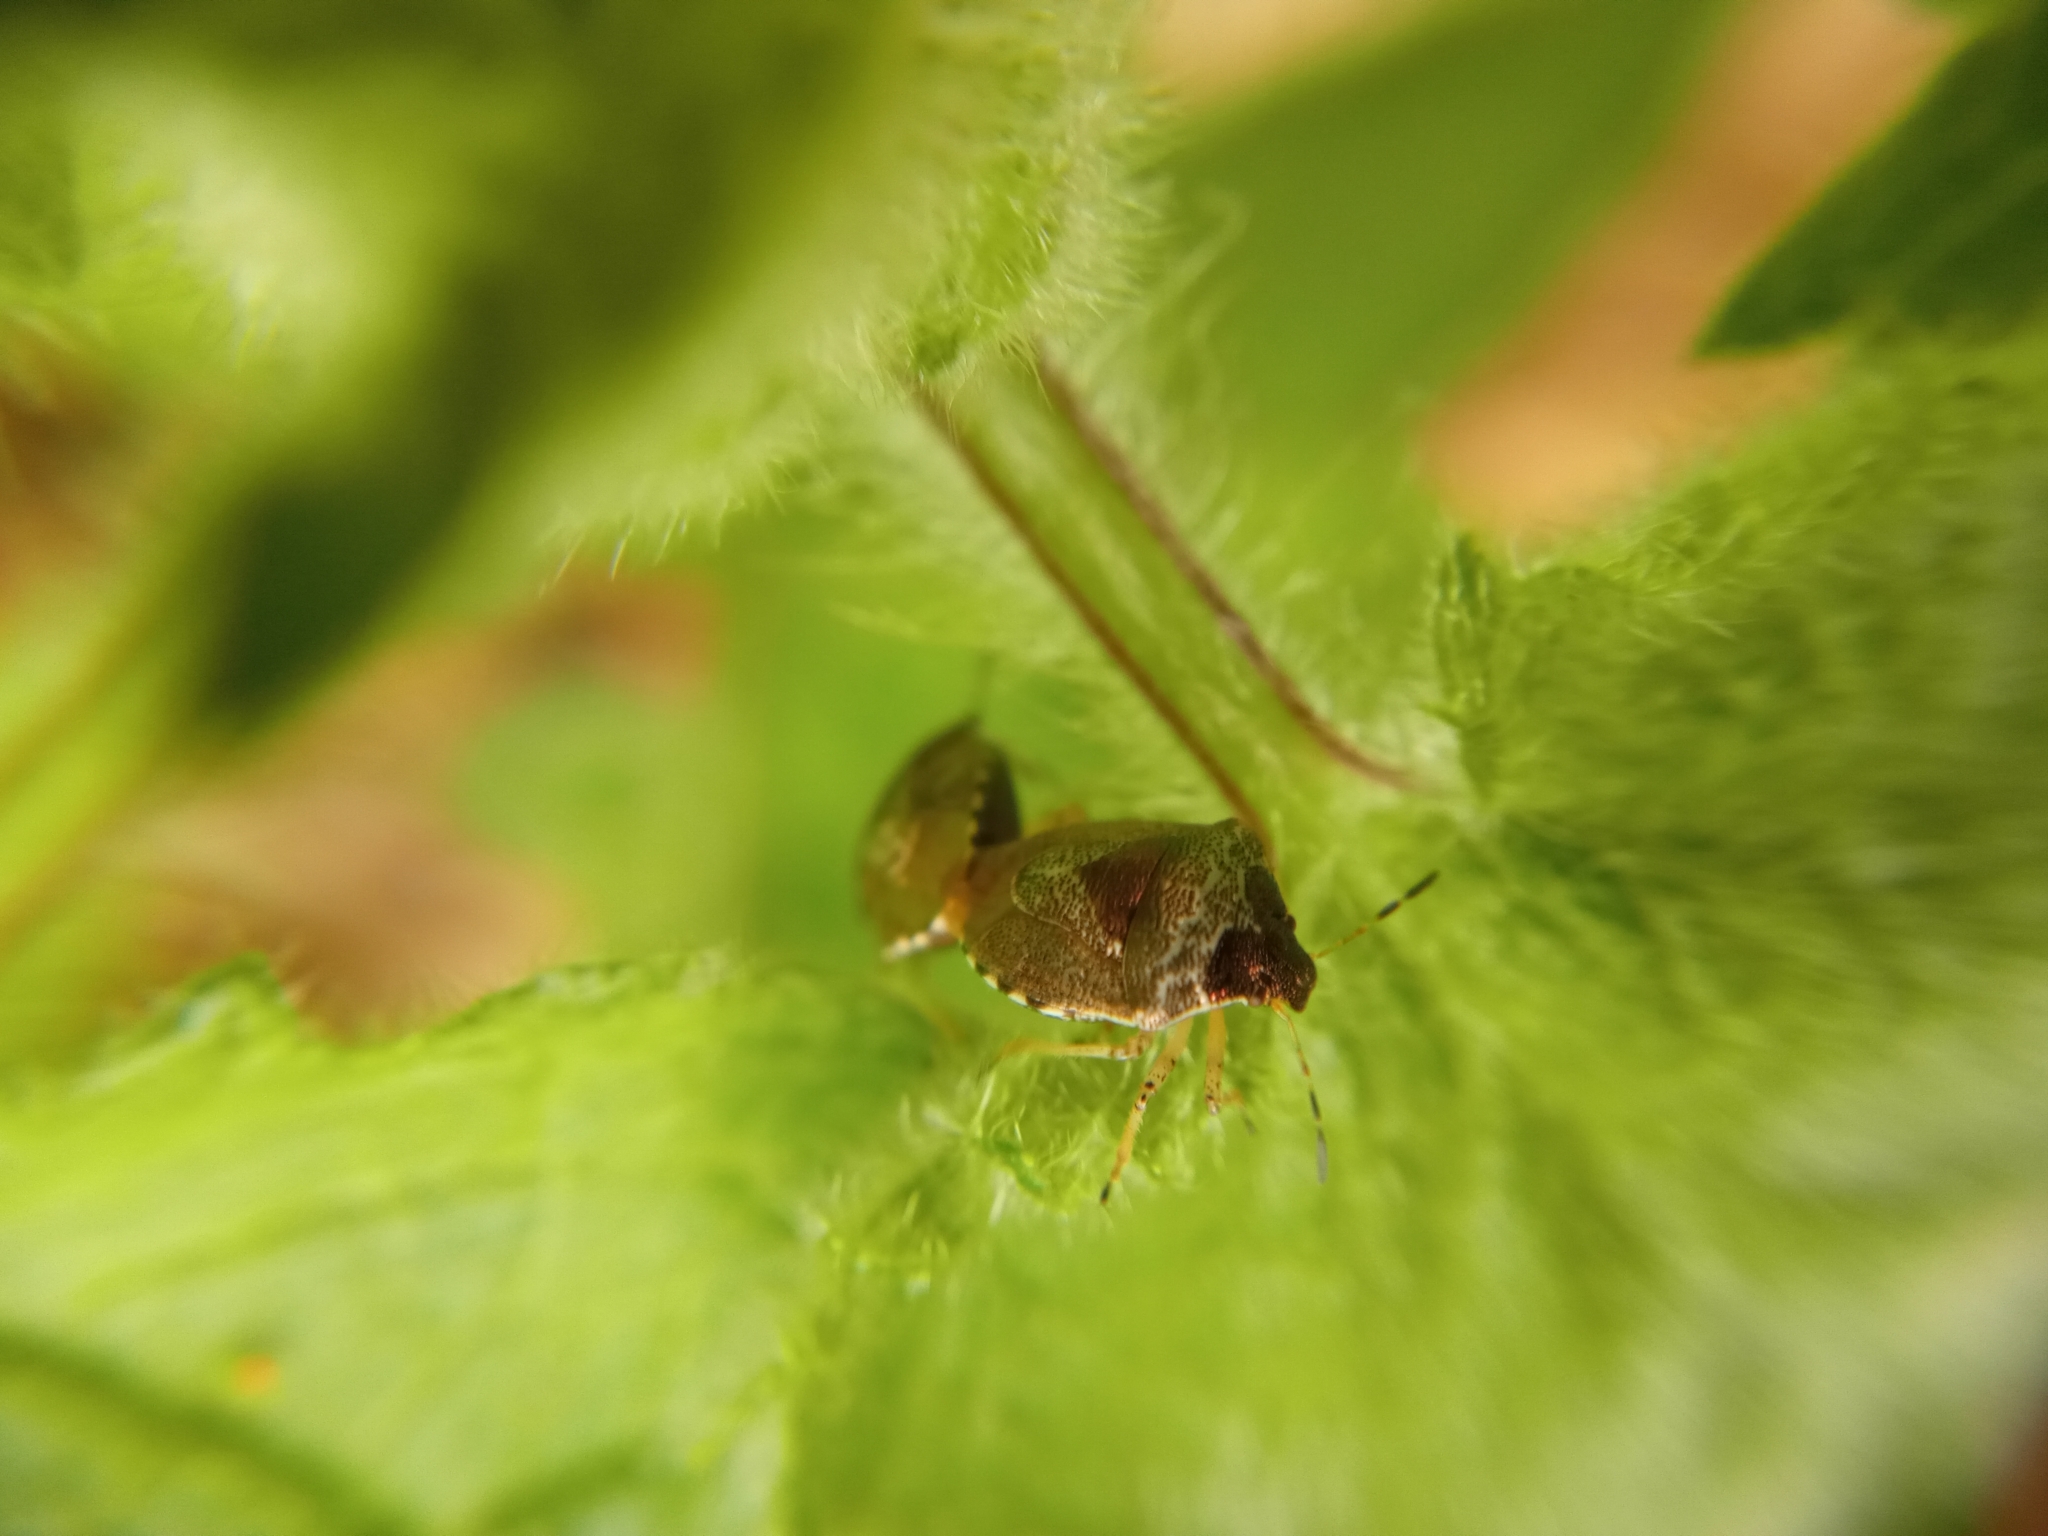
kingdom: Animalia
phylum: Arthropoda
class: Insecta
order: Hemiptera
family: Pentatomidae
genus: Eysarcoris
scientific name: Eysarcoris venustissimus
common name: Woundwort shieldbug
